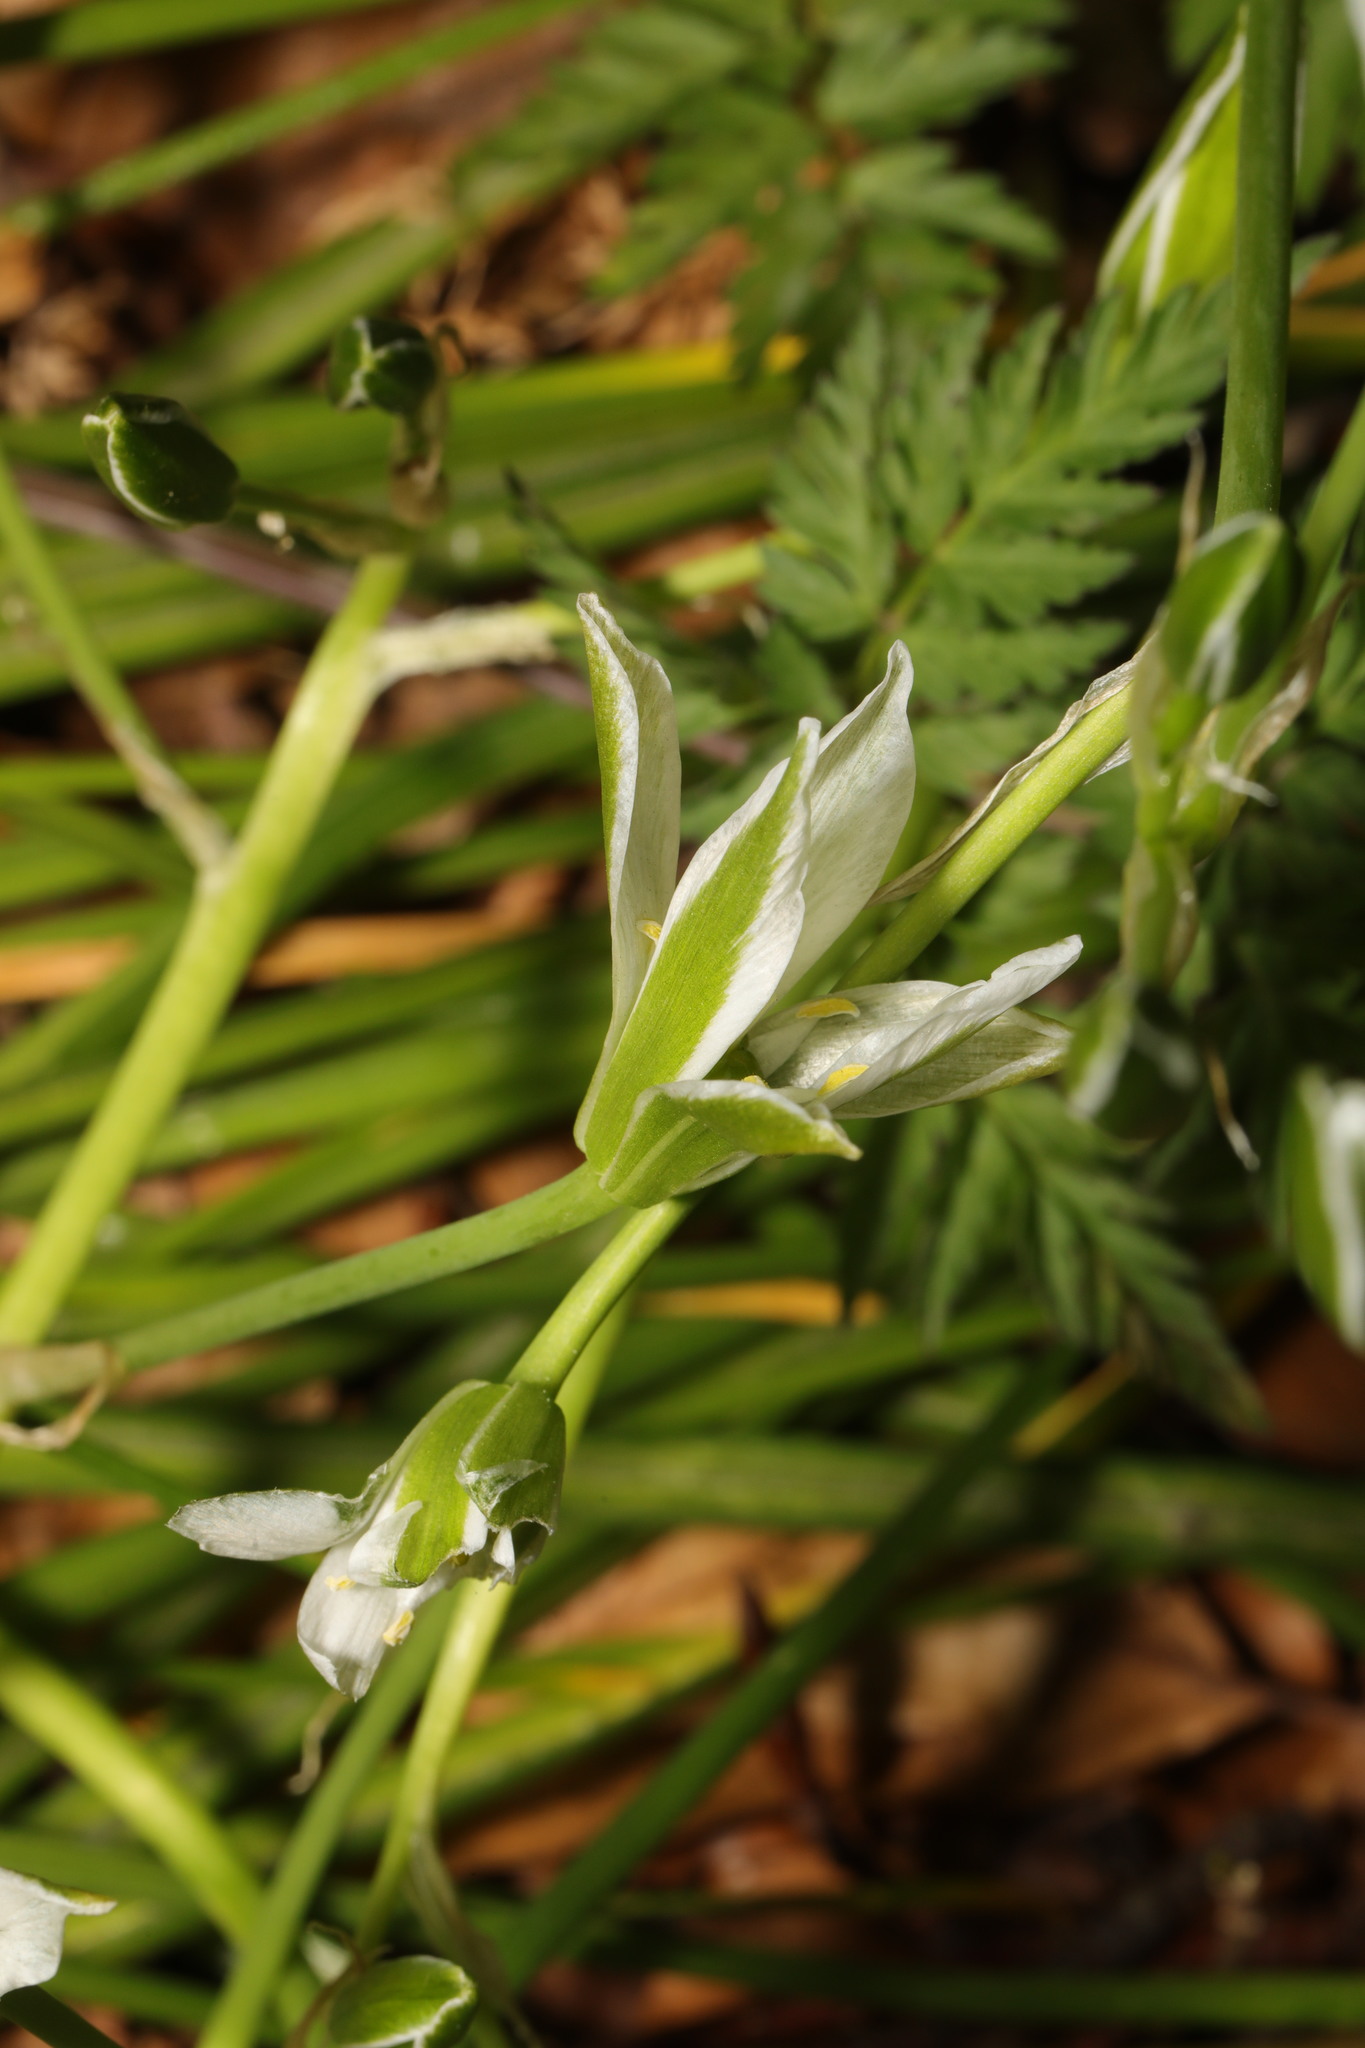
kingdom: Plantae
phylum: Tracheophyta
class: Liliopsida
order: Asparagales
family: Asparagaceae
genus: Ornithogalum
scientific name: Ornithogalum umbellatum
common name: Garden star-of-bethlehem
